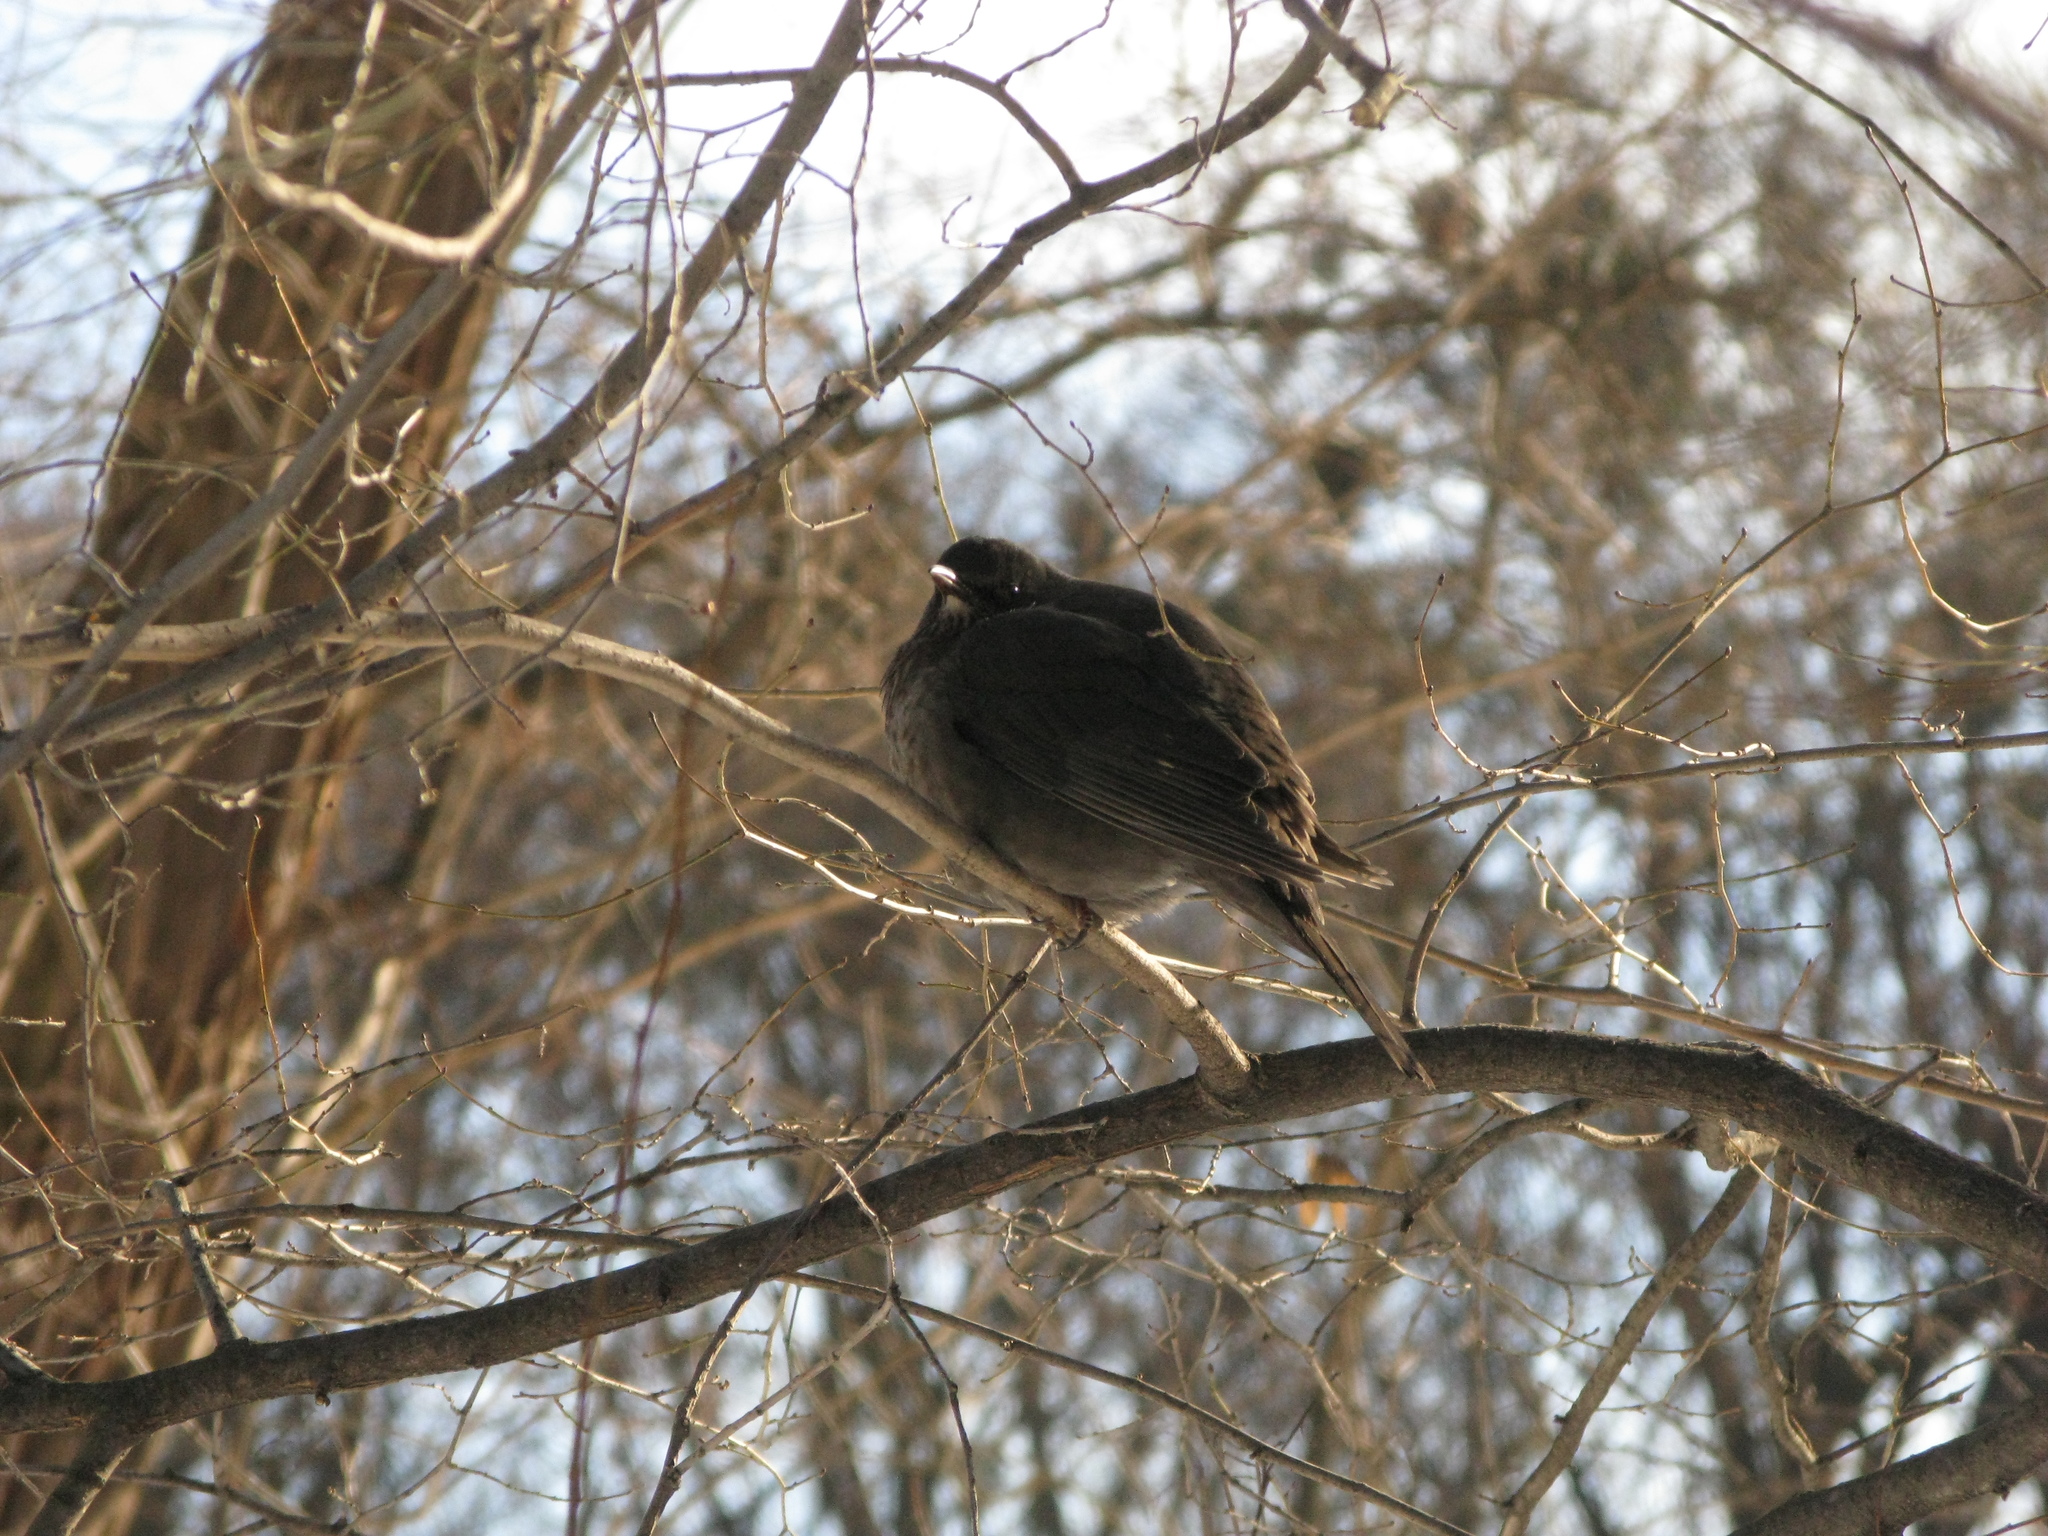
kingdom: Animalia
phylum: Chordata
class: Aves
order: Passeriformes
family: Turdidae
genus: Turdus
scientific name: Turdus merula
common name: Common blackbird
